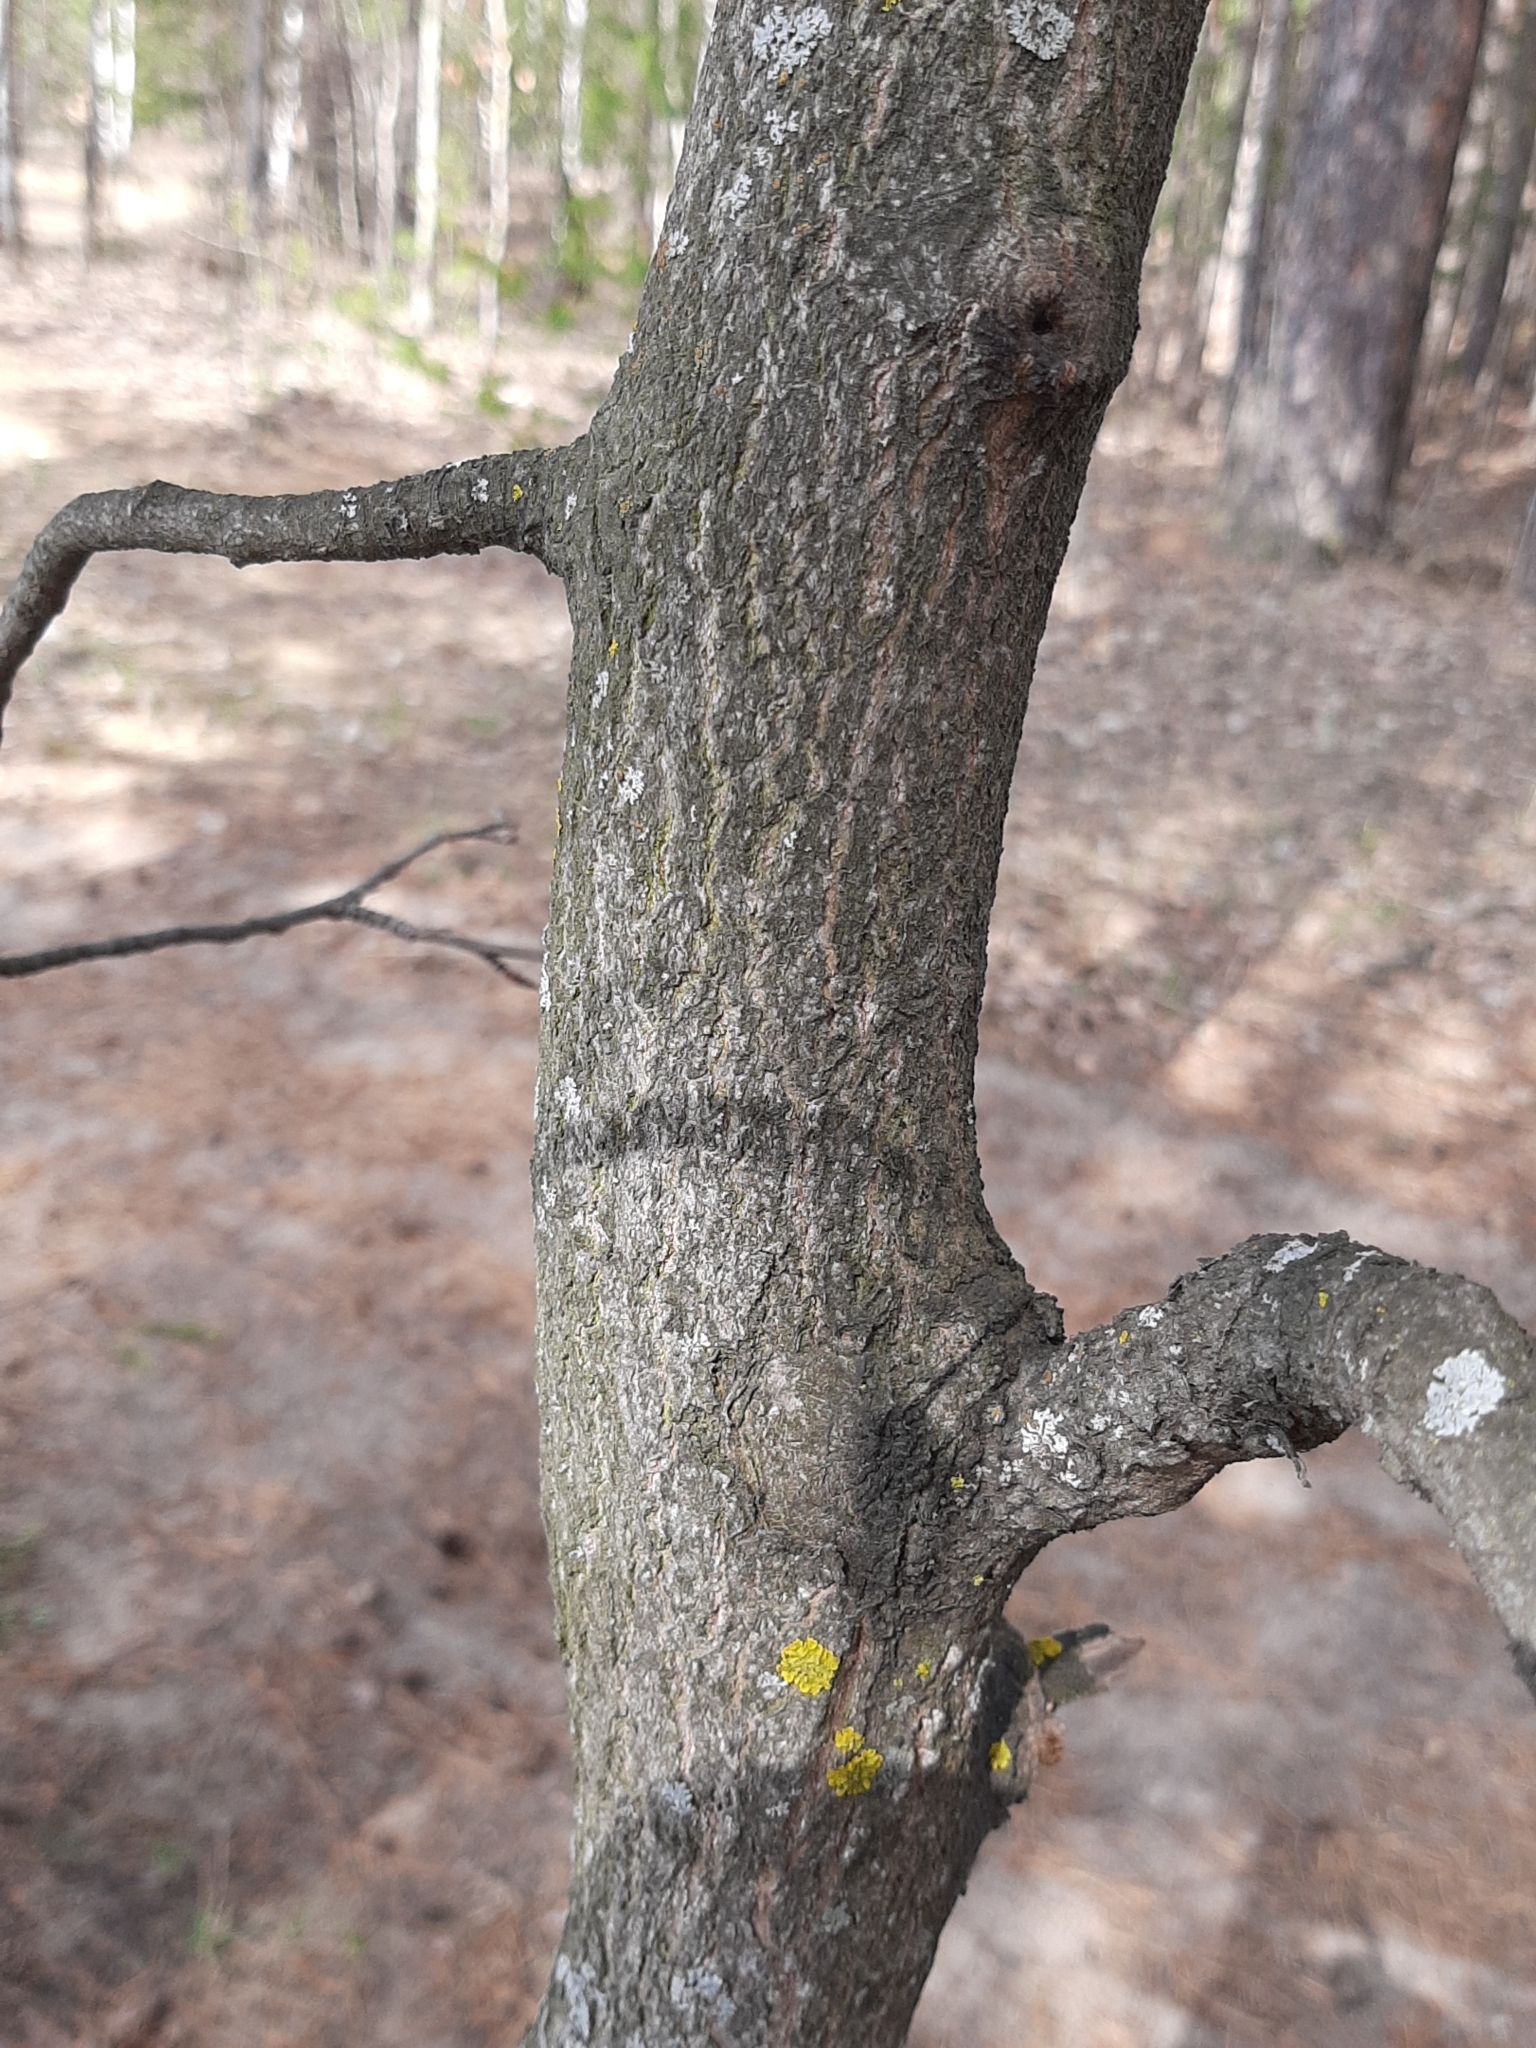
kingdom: Plantae
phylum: Tracheophyta
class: Magnoliopsida
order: Malpighiales
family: Salicaceae
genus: Populus
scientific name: Populus tremula
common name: European aspen
